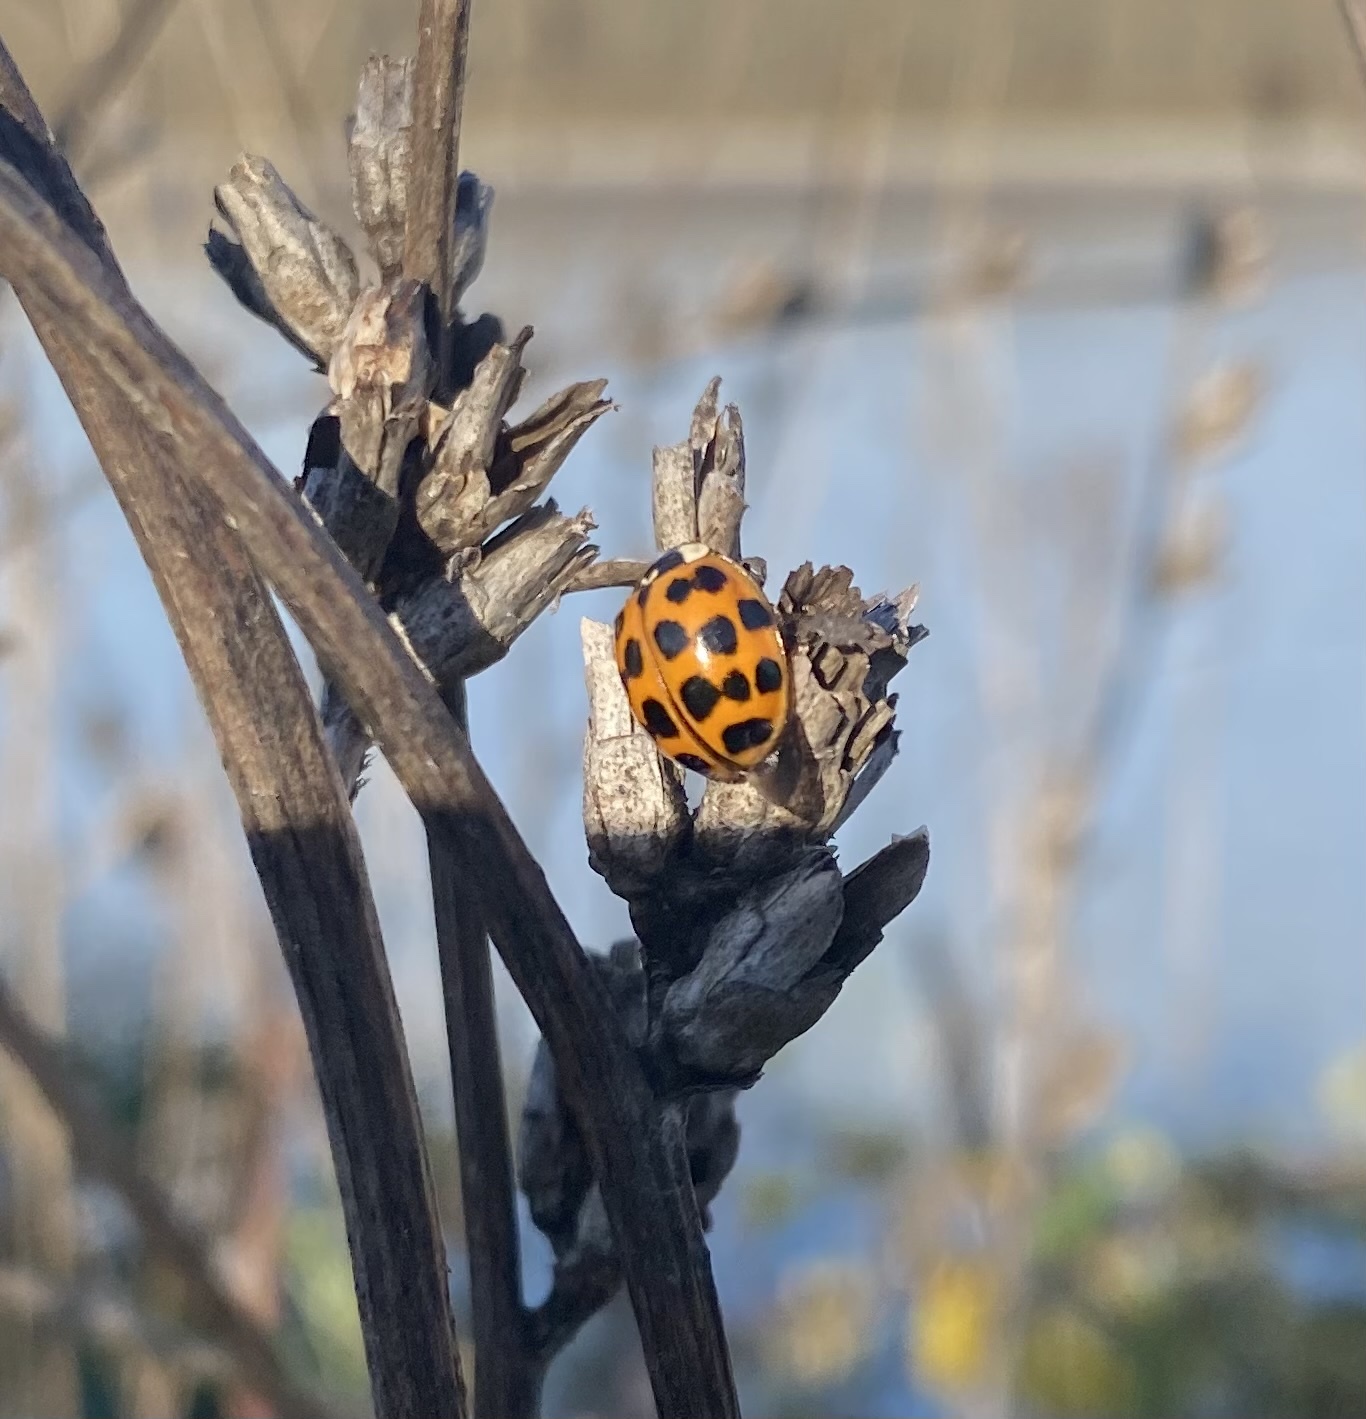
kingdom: Animalia
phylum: Arthropoda
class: Insecta
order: Coleoptera
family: Coccinellidae
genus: Harmonia
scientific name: Harmonia axyridis
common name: Harlequin ladybird
